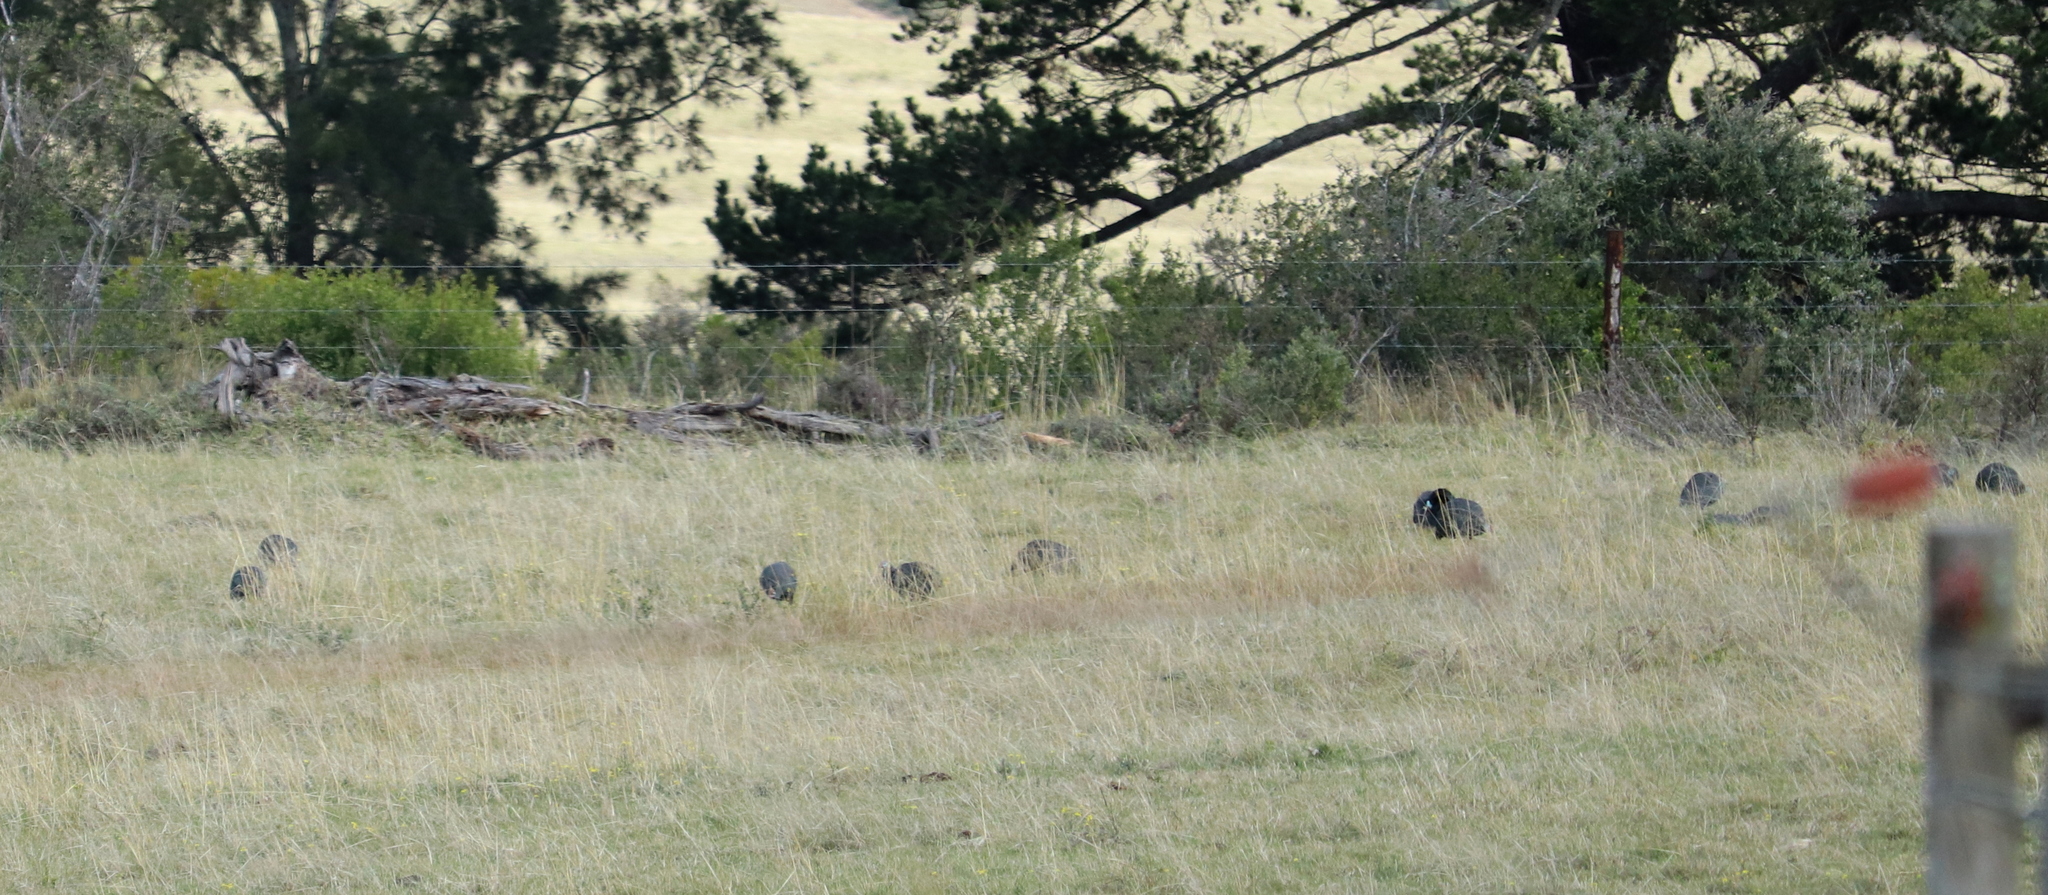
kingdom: Animalia
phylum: Chordata
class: Aves
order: Galliformes
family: Numididae
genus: Numida
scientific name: Numida meleagris
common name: Helmeted guineafowl
